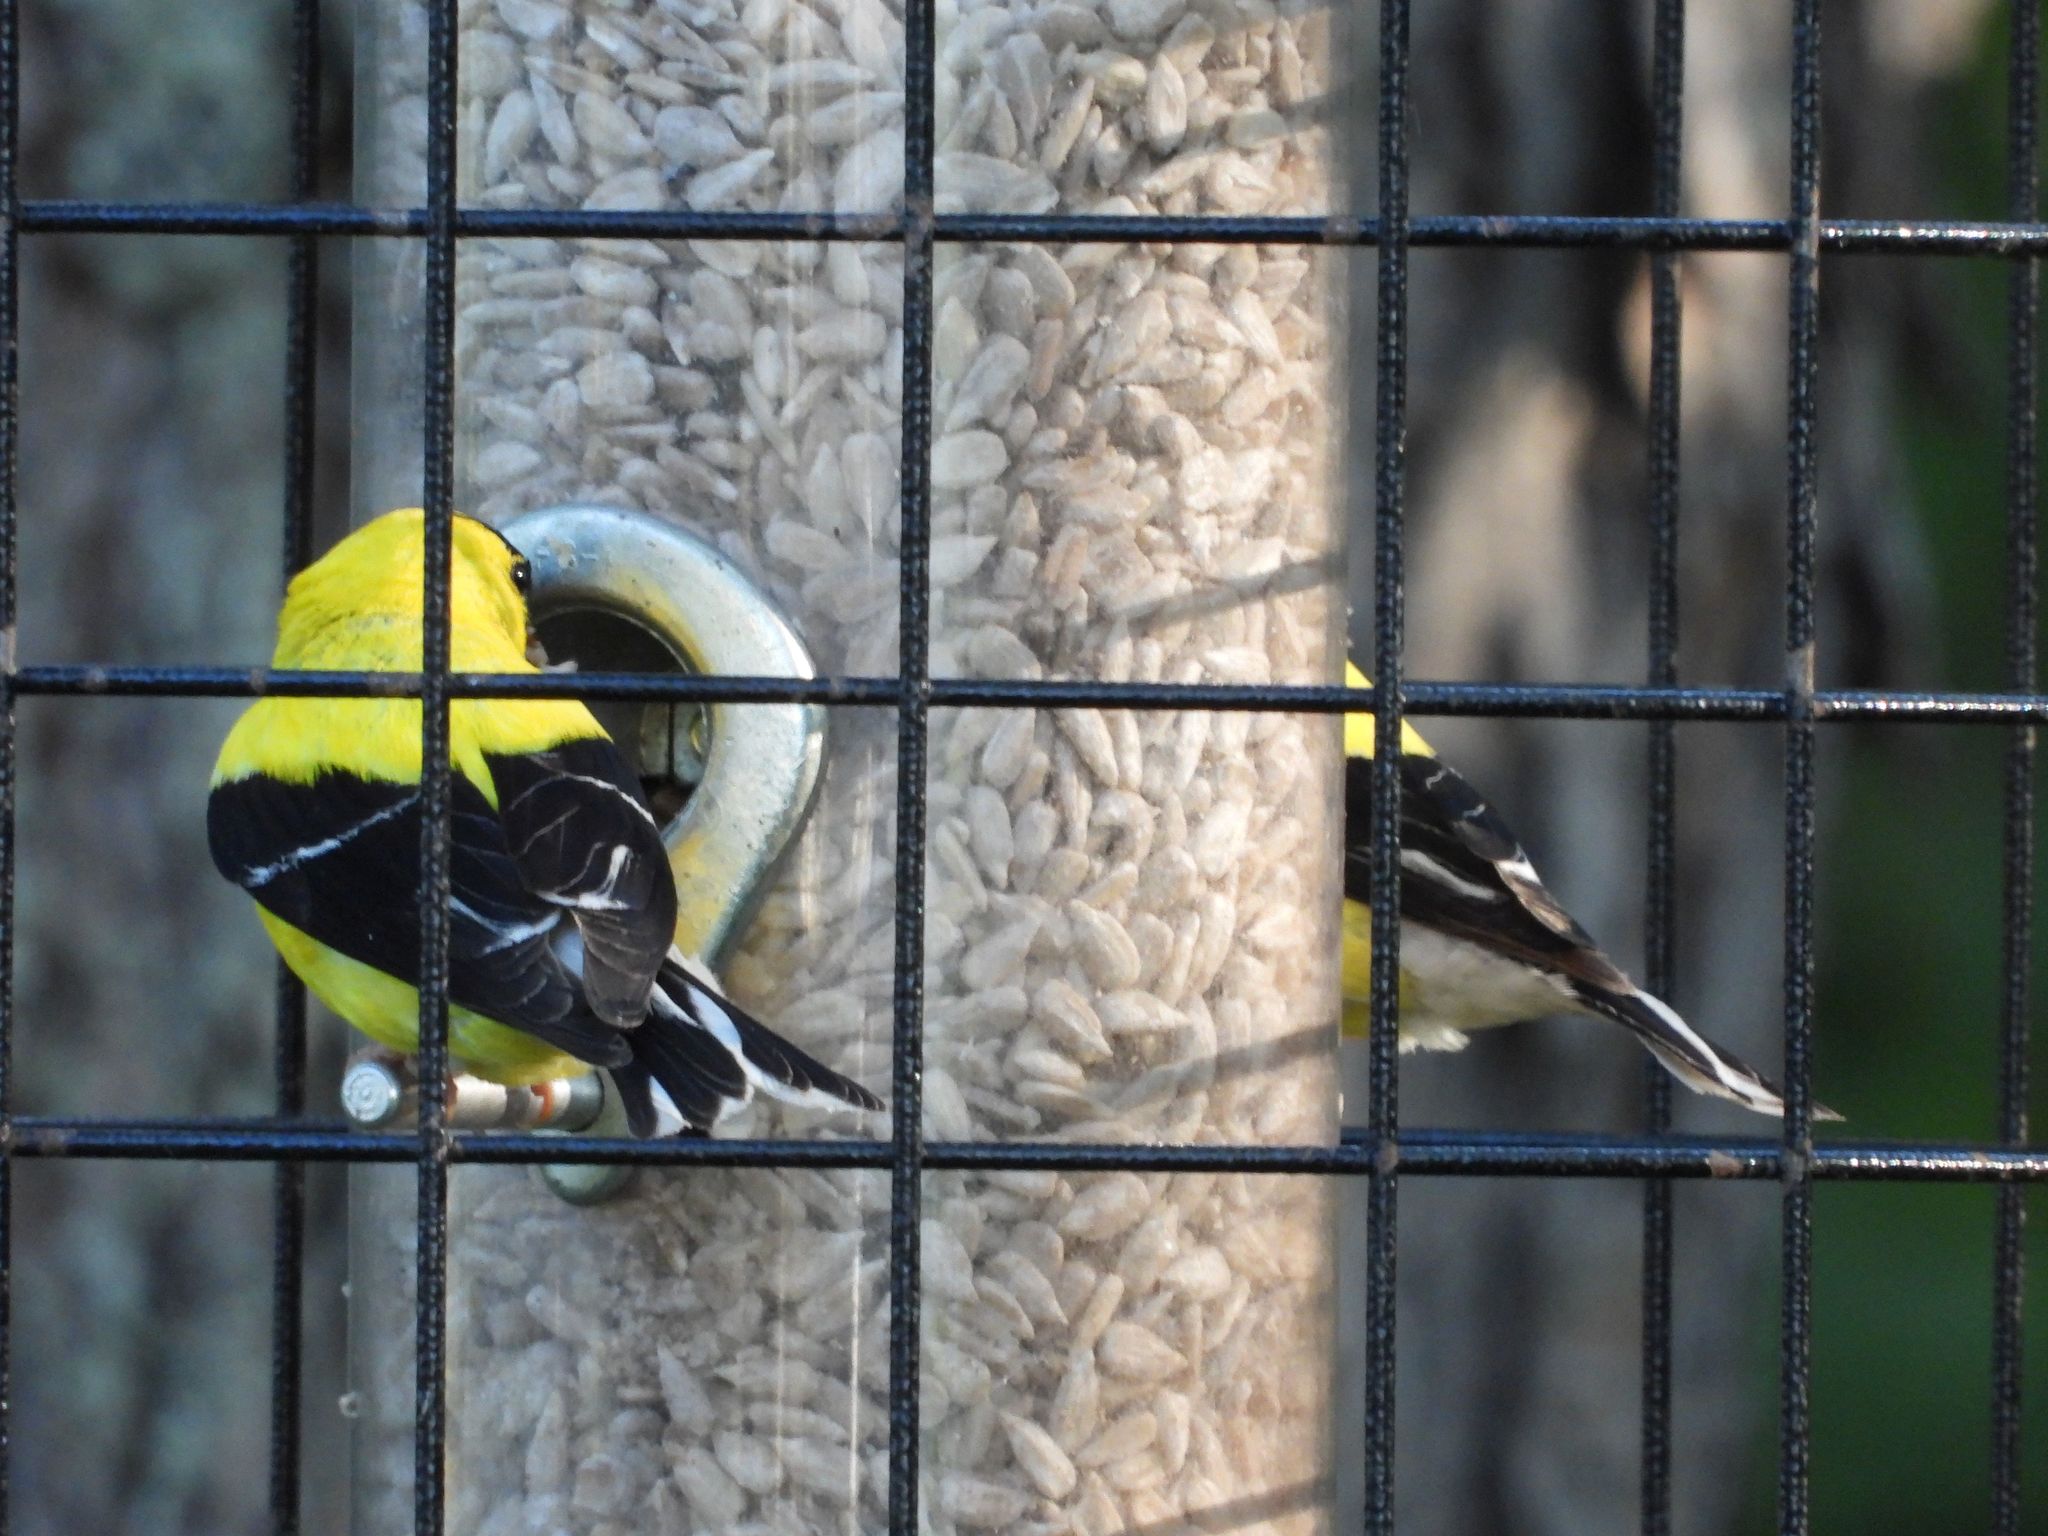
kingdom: Animalia
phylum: Chordata
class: Aves
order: Passeriformes
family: Fringillidae
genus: Spinus
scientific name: Spinus tristis
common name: American goldfinch
